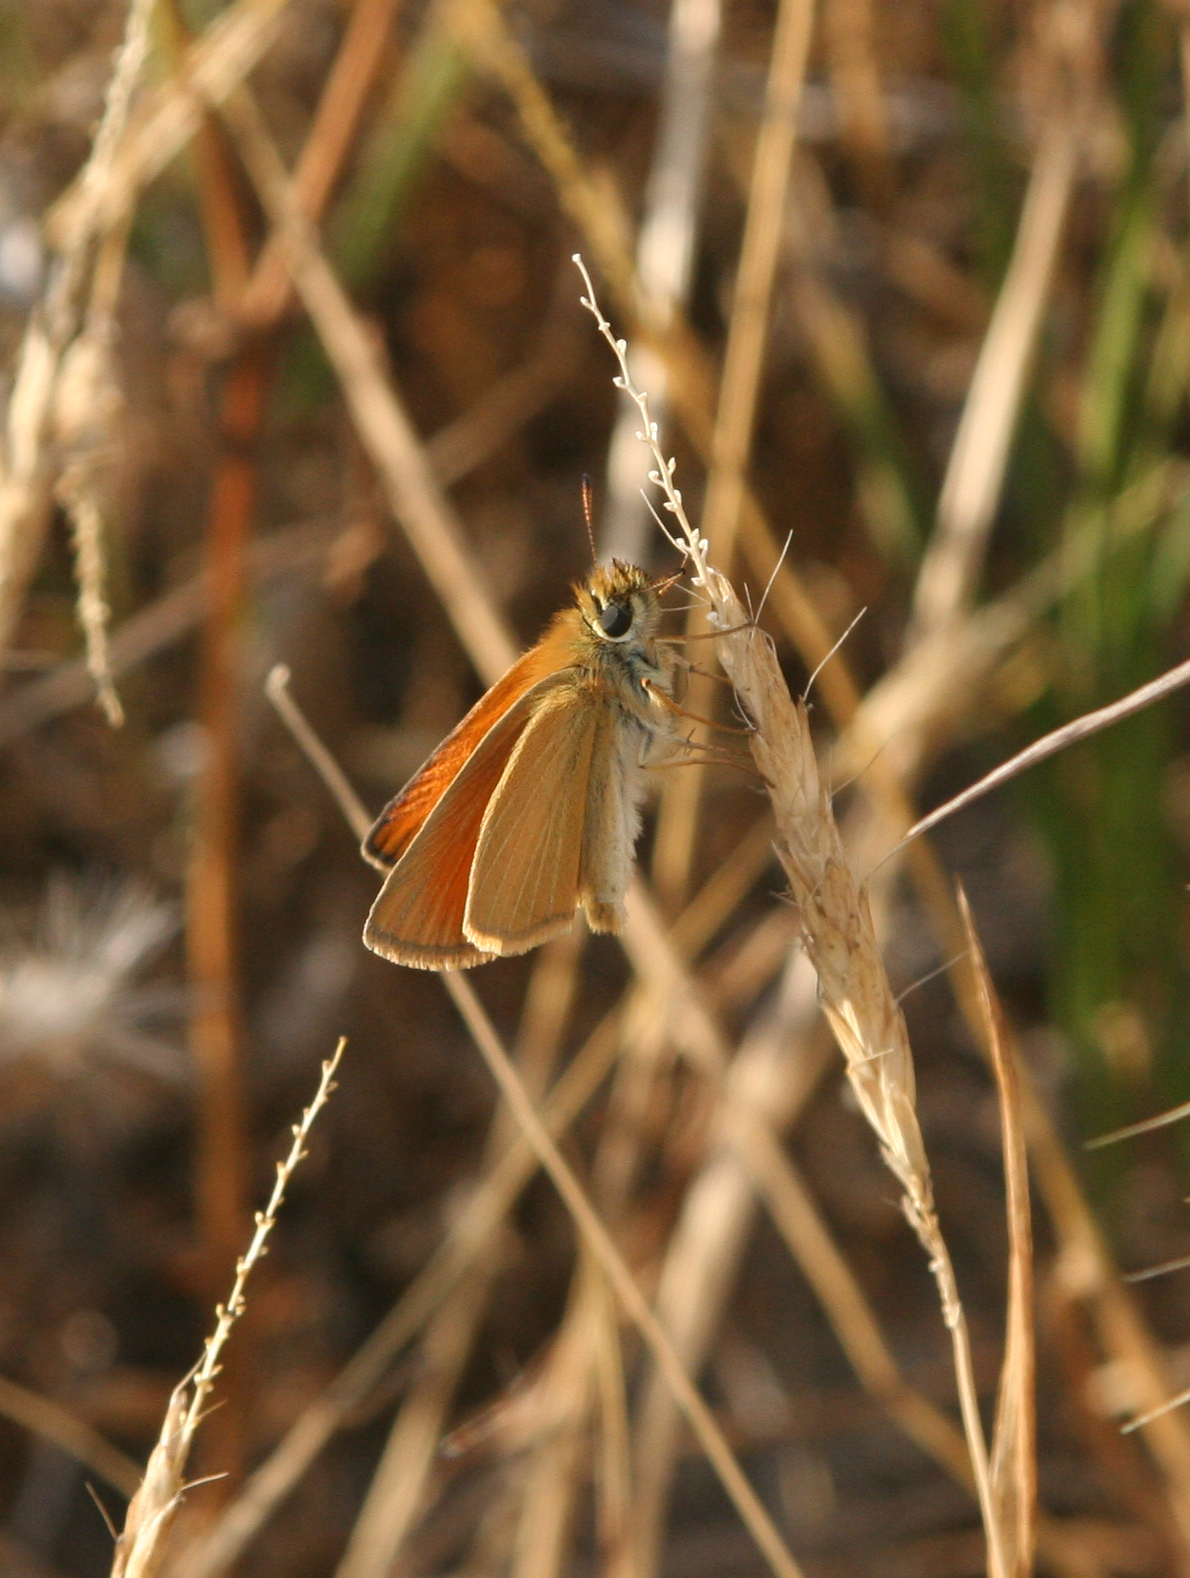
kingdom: Animalia
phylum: Arthropoda
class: Insecta
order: Lepidoptera
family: Hesperiidae
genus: Thymelicus
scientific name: Thymelicus lineola
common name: Essex skipper
